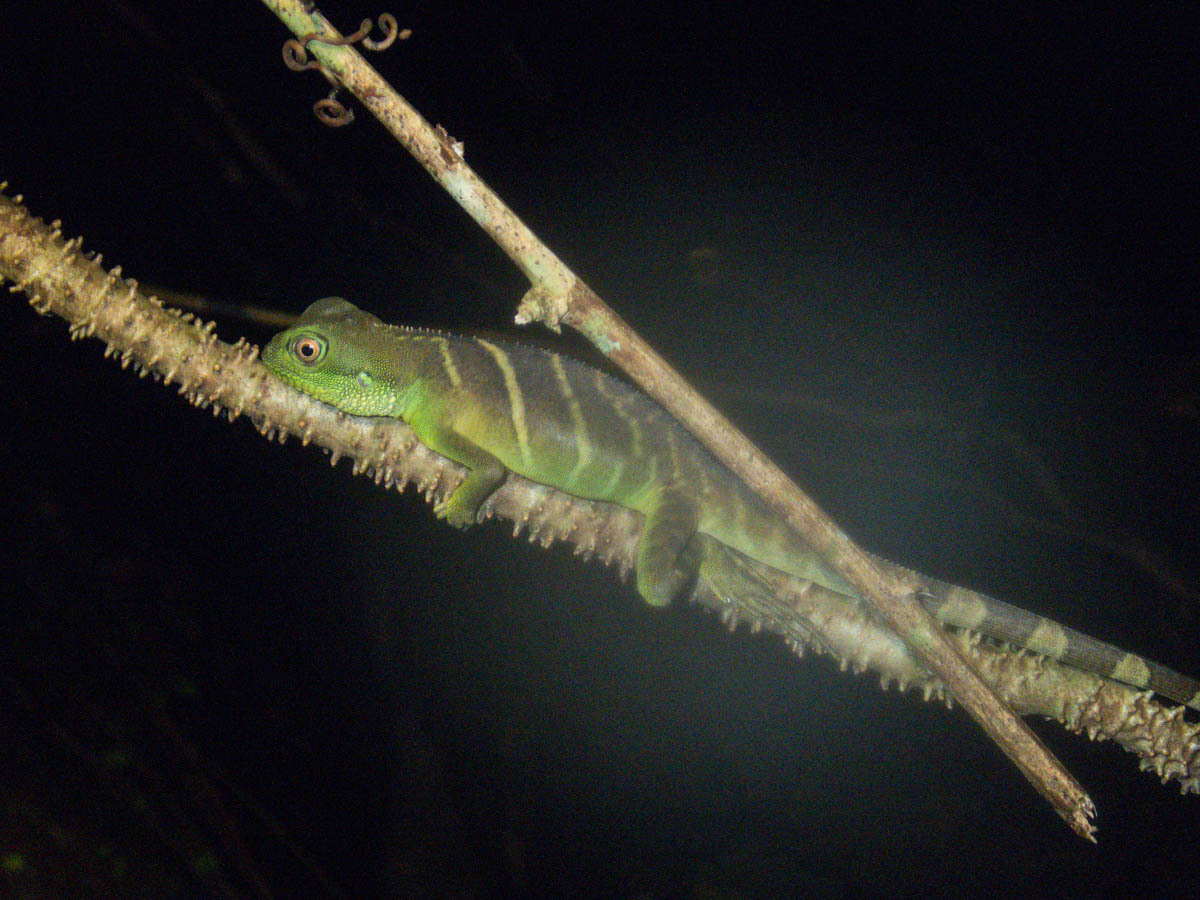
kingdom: Animalia
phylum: Chordata
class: Squamata
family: Agamidae
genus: Physignathus
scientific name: Physignathus cocincinus
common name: Asian water dragon
